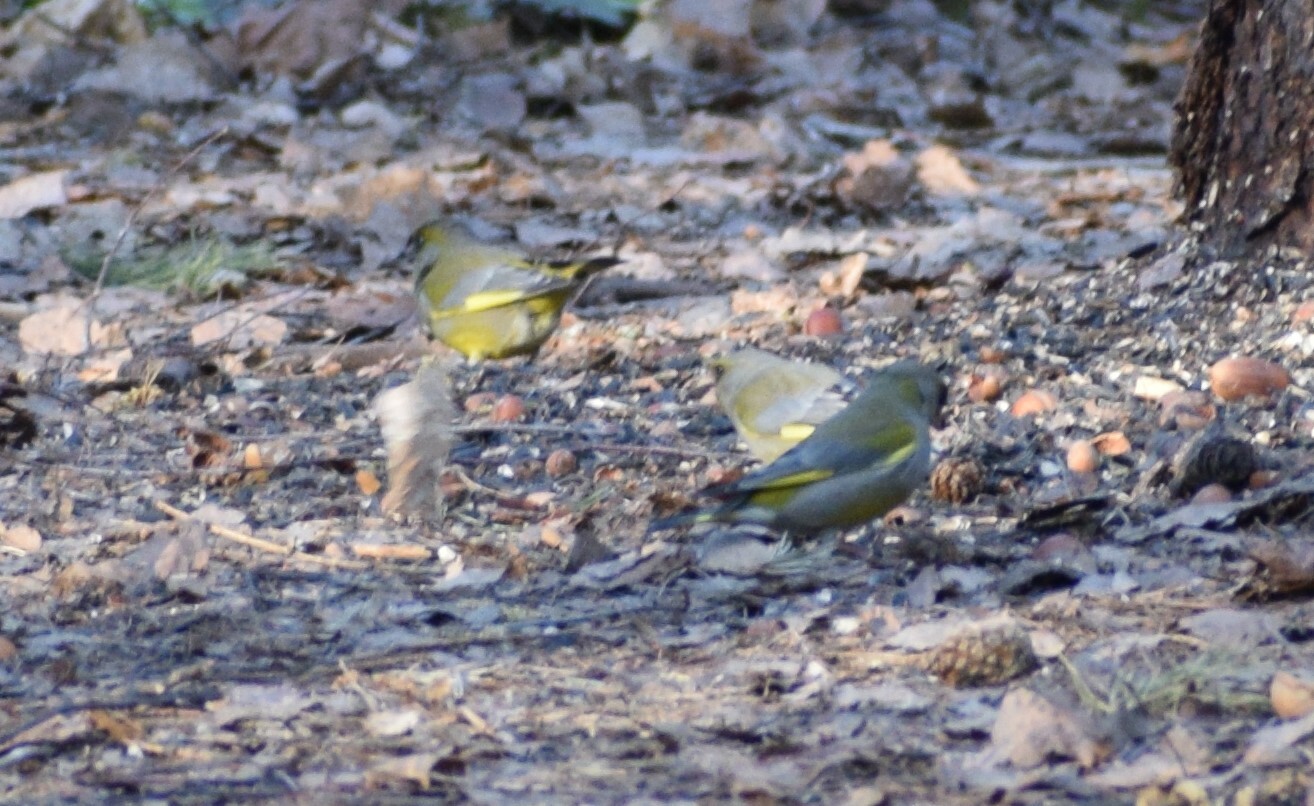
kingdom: Plantae
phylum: Tracheophyta
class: Liliopsida
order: Poales
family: Poaceae
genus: Chloris
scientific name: Chloris chloris
